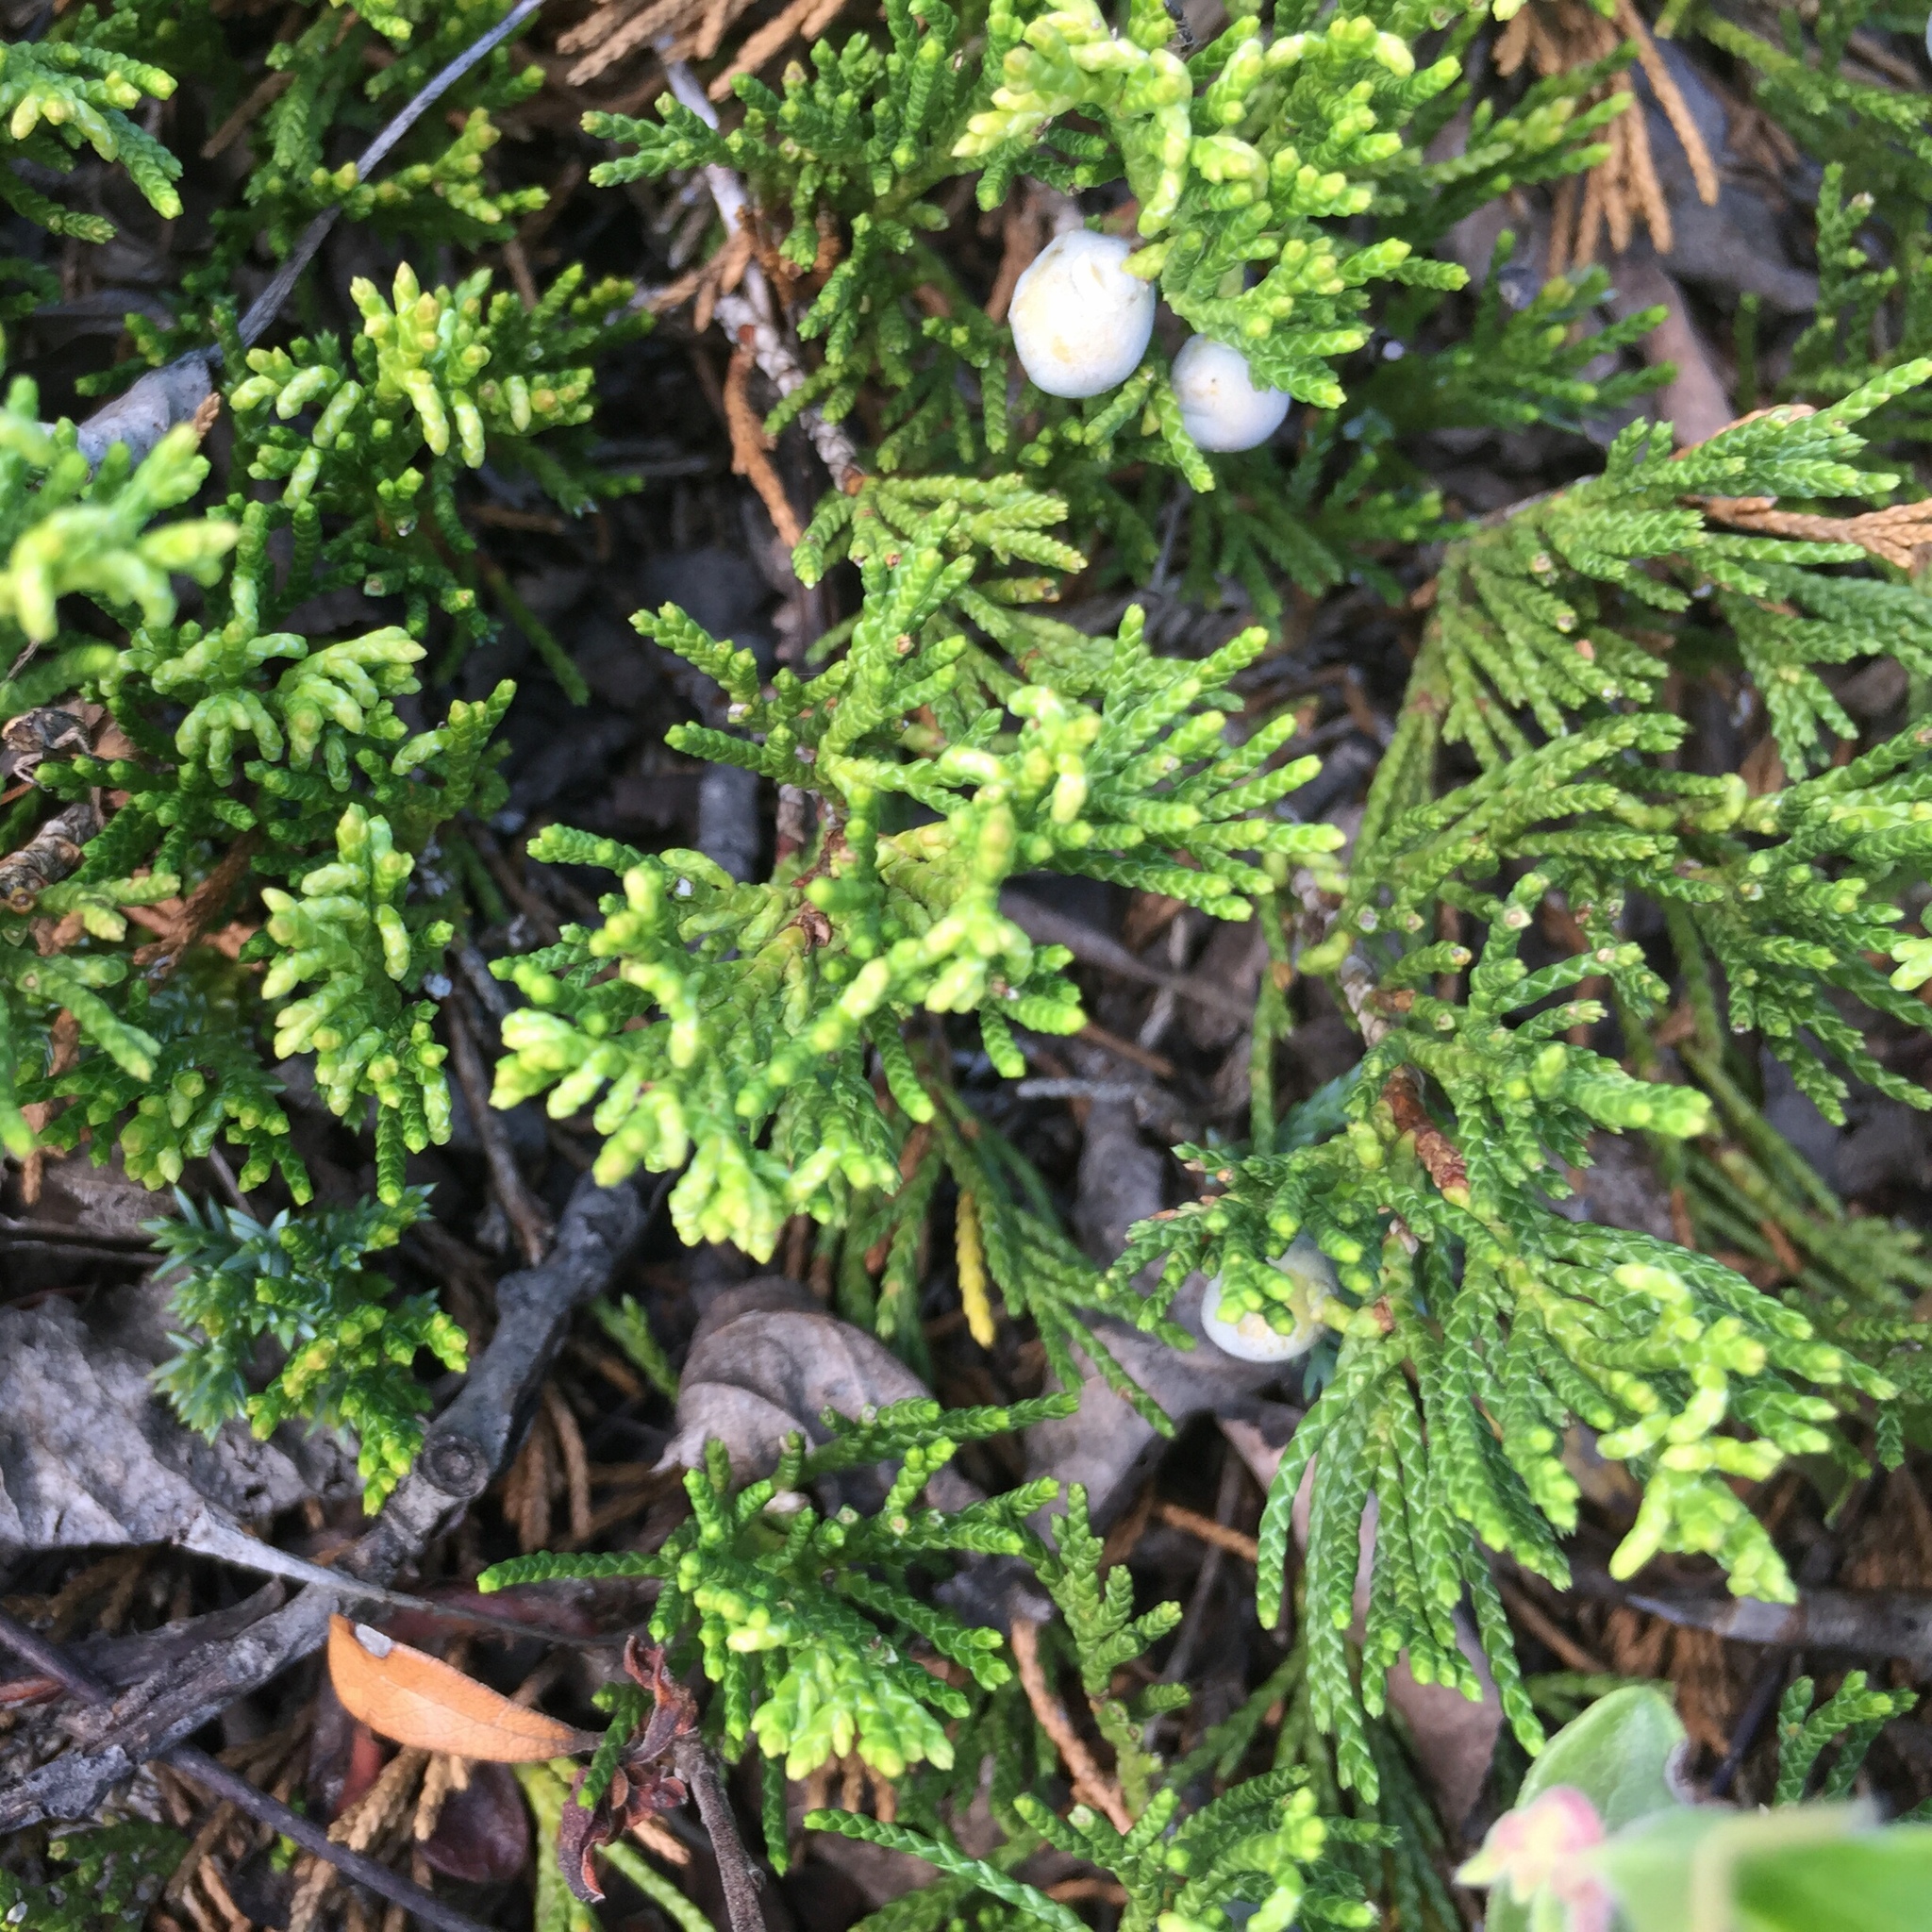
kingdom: Plantae
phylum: Tracheophyta
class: Pinopsida
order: Pinales
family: Cupressaceae
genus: Juniperus
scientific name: Juniperus horizontalis
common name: Creeping juniper
